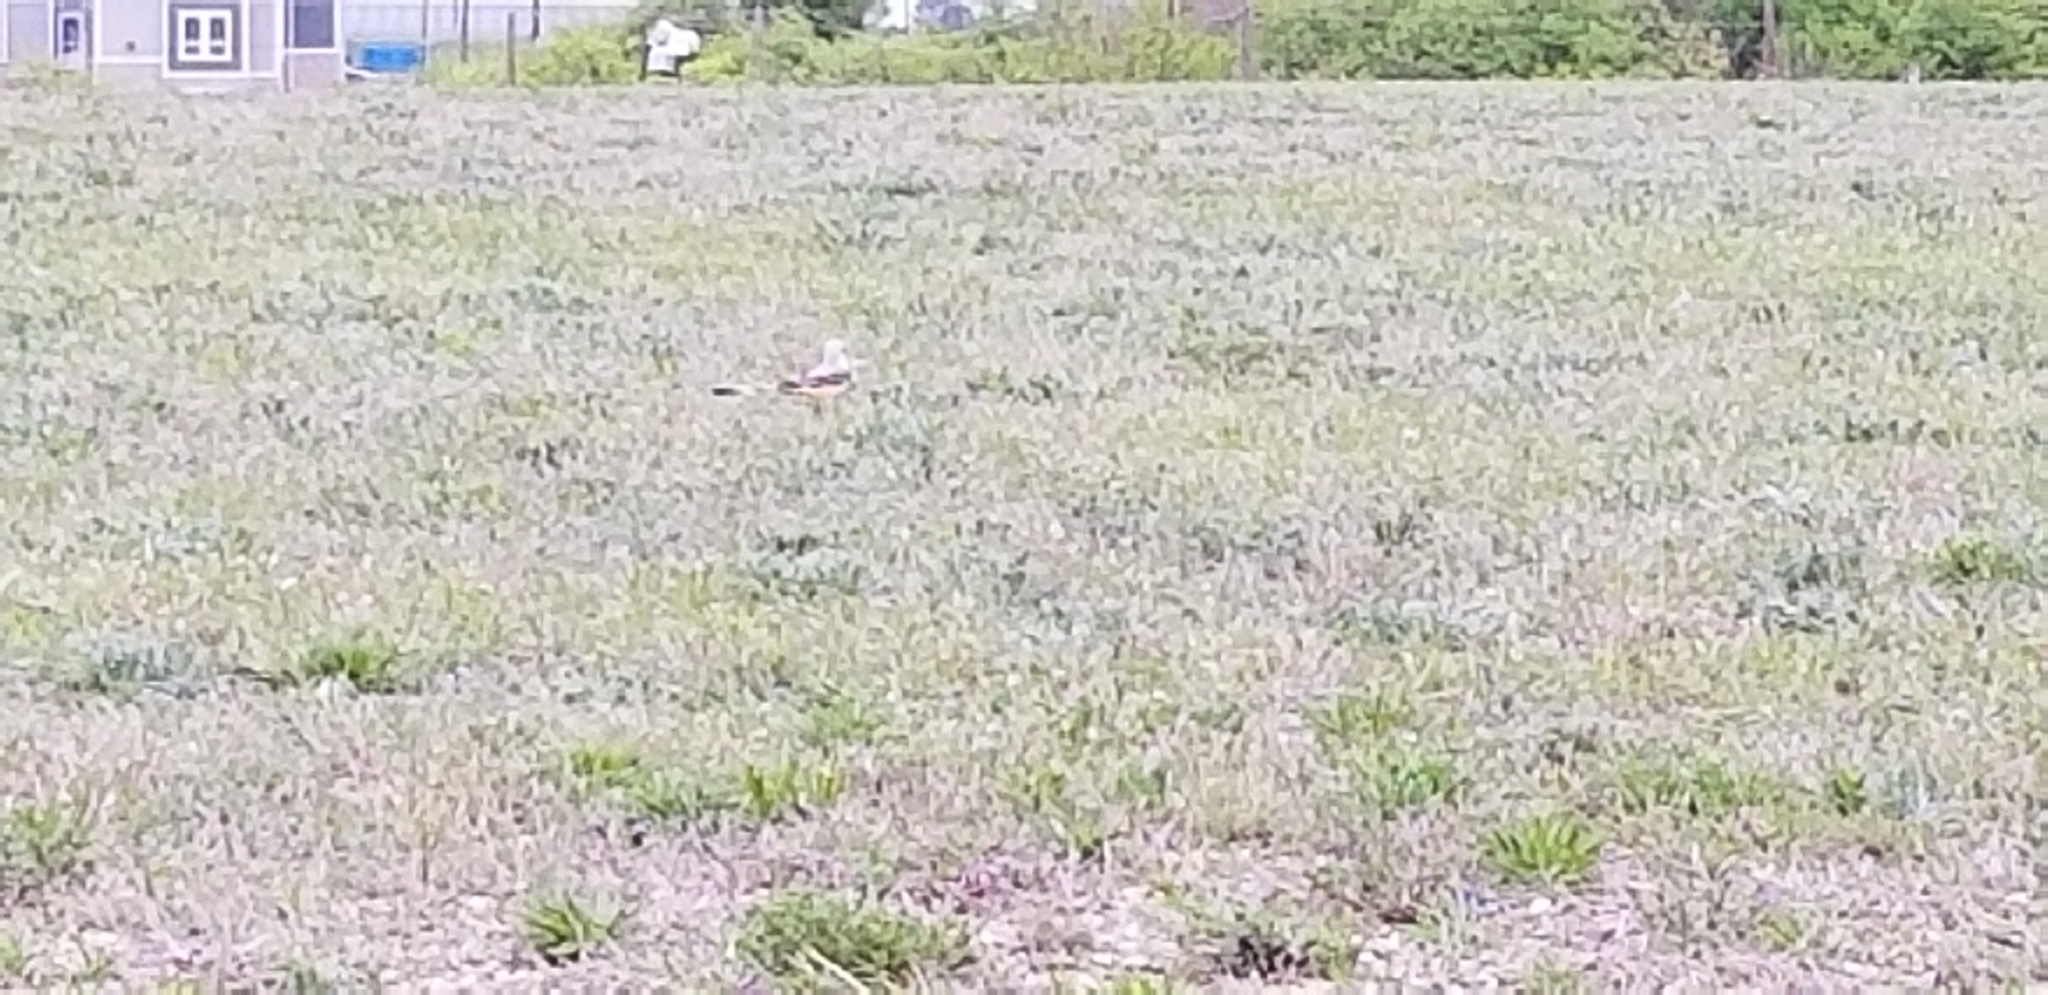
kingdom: Animalia
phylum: Chordata
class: Aves
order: Passeriformes
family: Tyrannidae
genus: Tyrannus
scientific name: Tyrannus forficatus
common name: Scissor-tailed flycatcher
